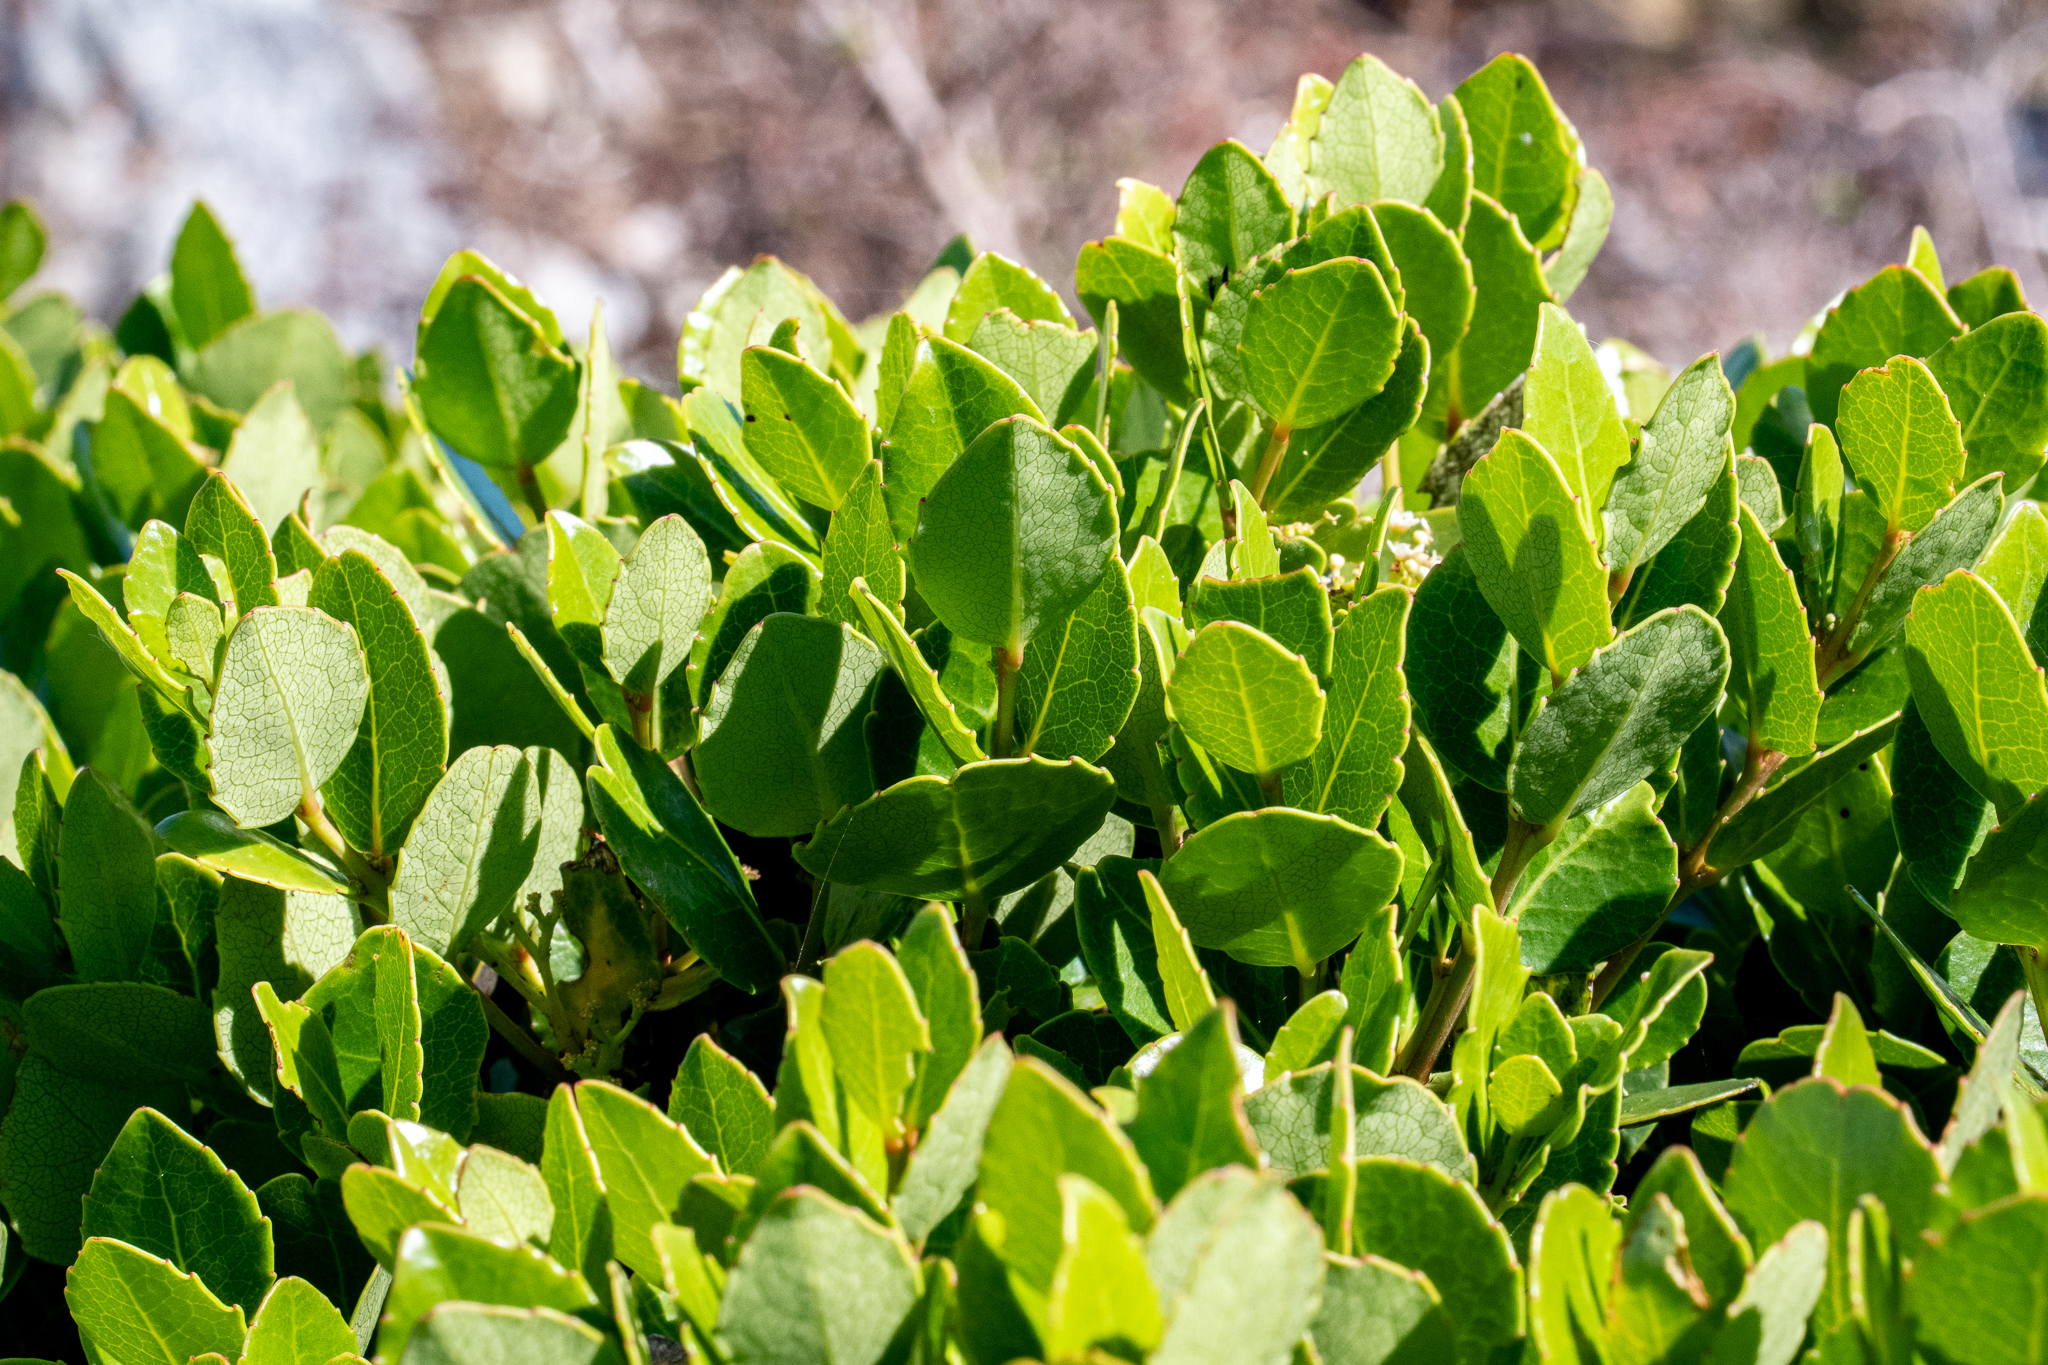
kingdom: Plantae
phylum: Tracheophyta
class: Magnoliopsida
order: Celastrales
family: Celastraceae
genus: Cassine
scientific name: Cassine peragua
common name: Cape saffron
